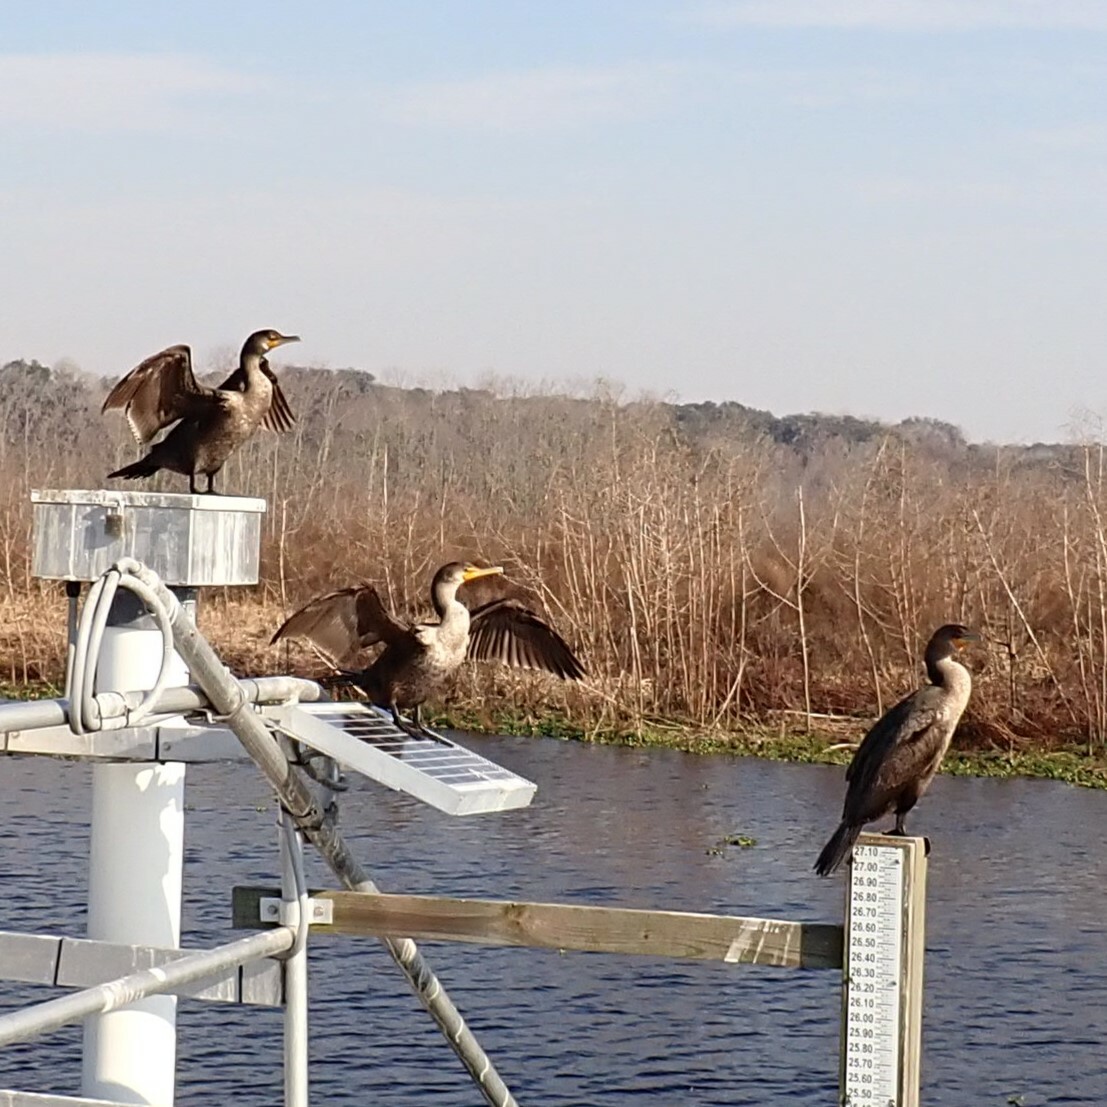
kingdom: Animalia
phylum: Chordata
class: Aves
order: Suliformes
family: Phalacrocoracidae
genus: Phalacrocorax
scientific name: Phalacrocorax auritus
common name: Double-crested cormorant
